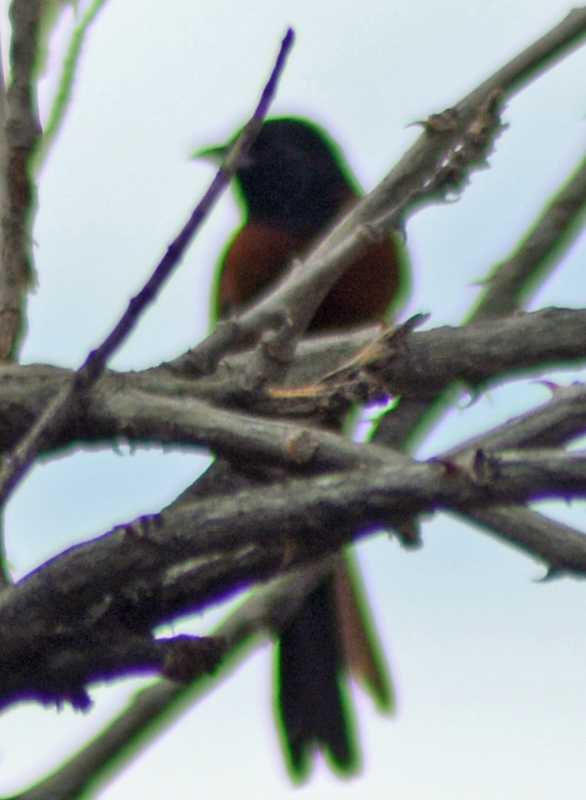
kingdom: Animalia
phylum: Chordata
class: Aves
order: Passeriformes
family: Icteridae
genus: Icterus
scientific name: Icterus spurius
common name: Orchard oriole
